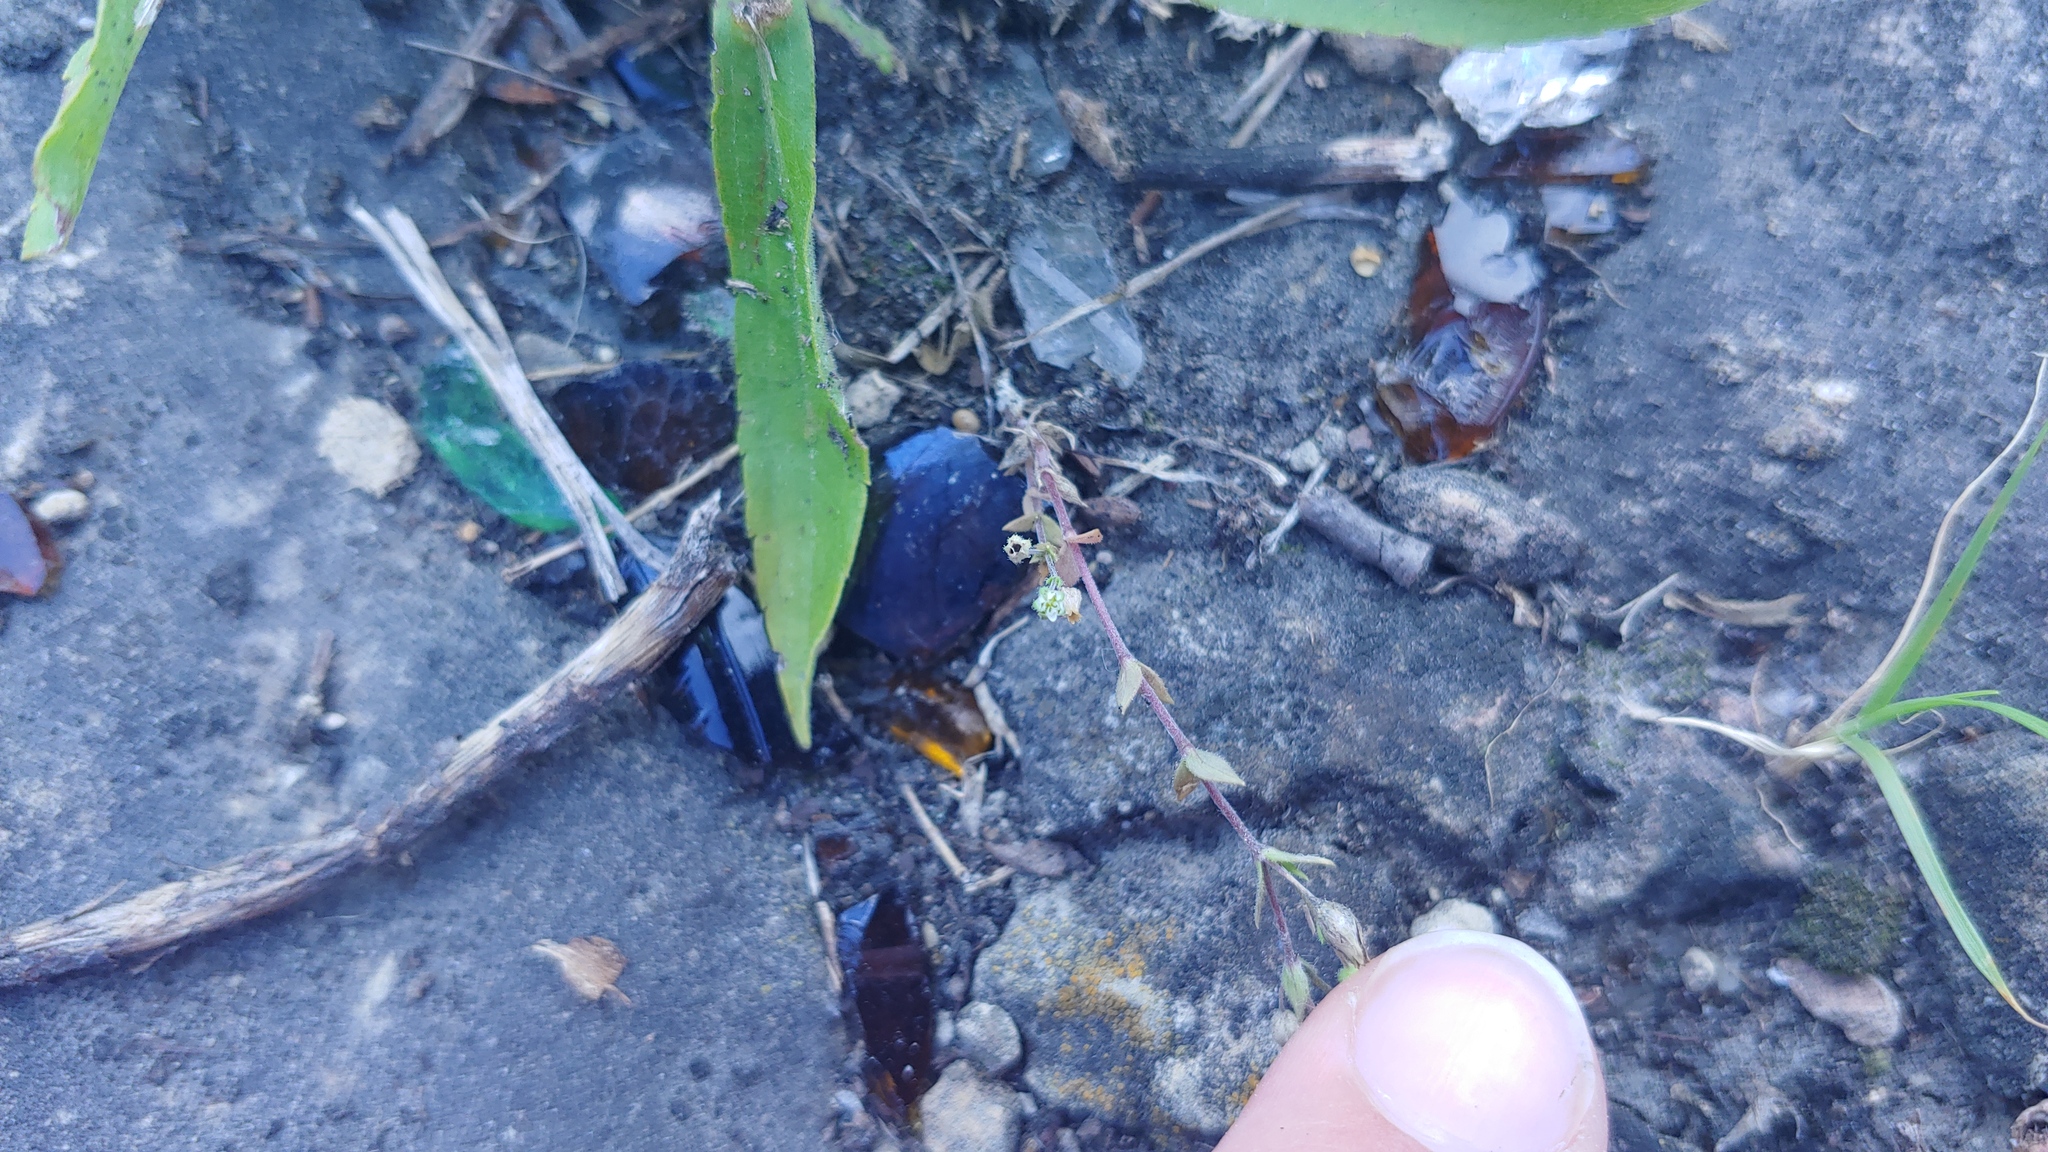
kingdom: Plantae
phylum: Tracheophyta
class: Magnoliopsida
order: Caryophyllales
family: Caryophyllaceae
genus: Arenaria
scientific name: Arenaria serpyllifolia
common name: Thyme-leaved sandwort
